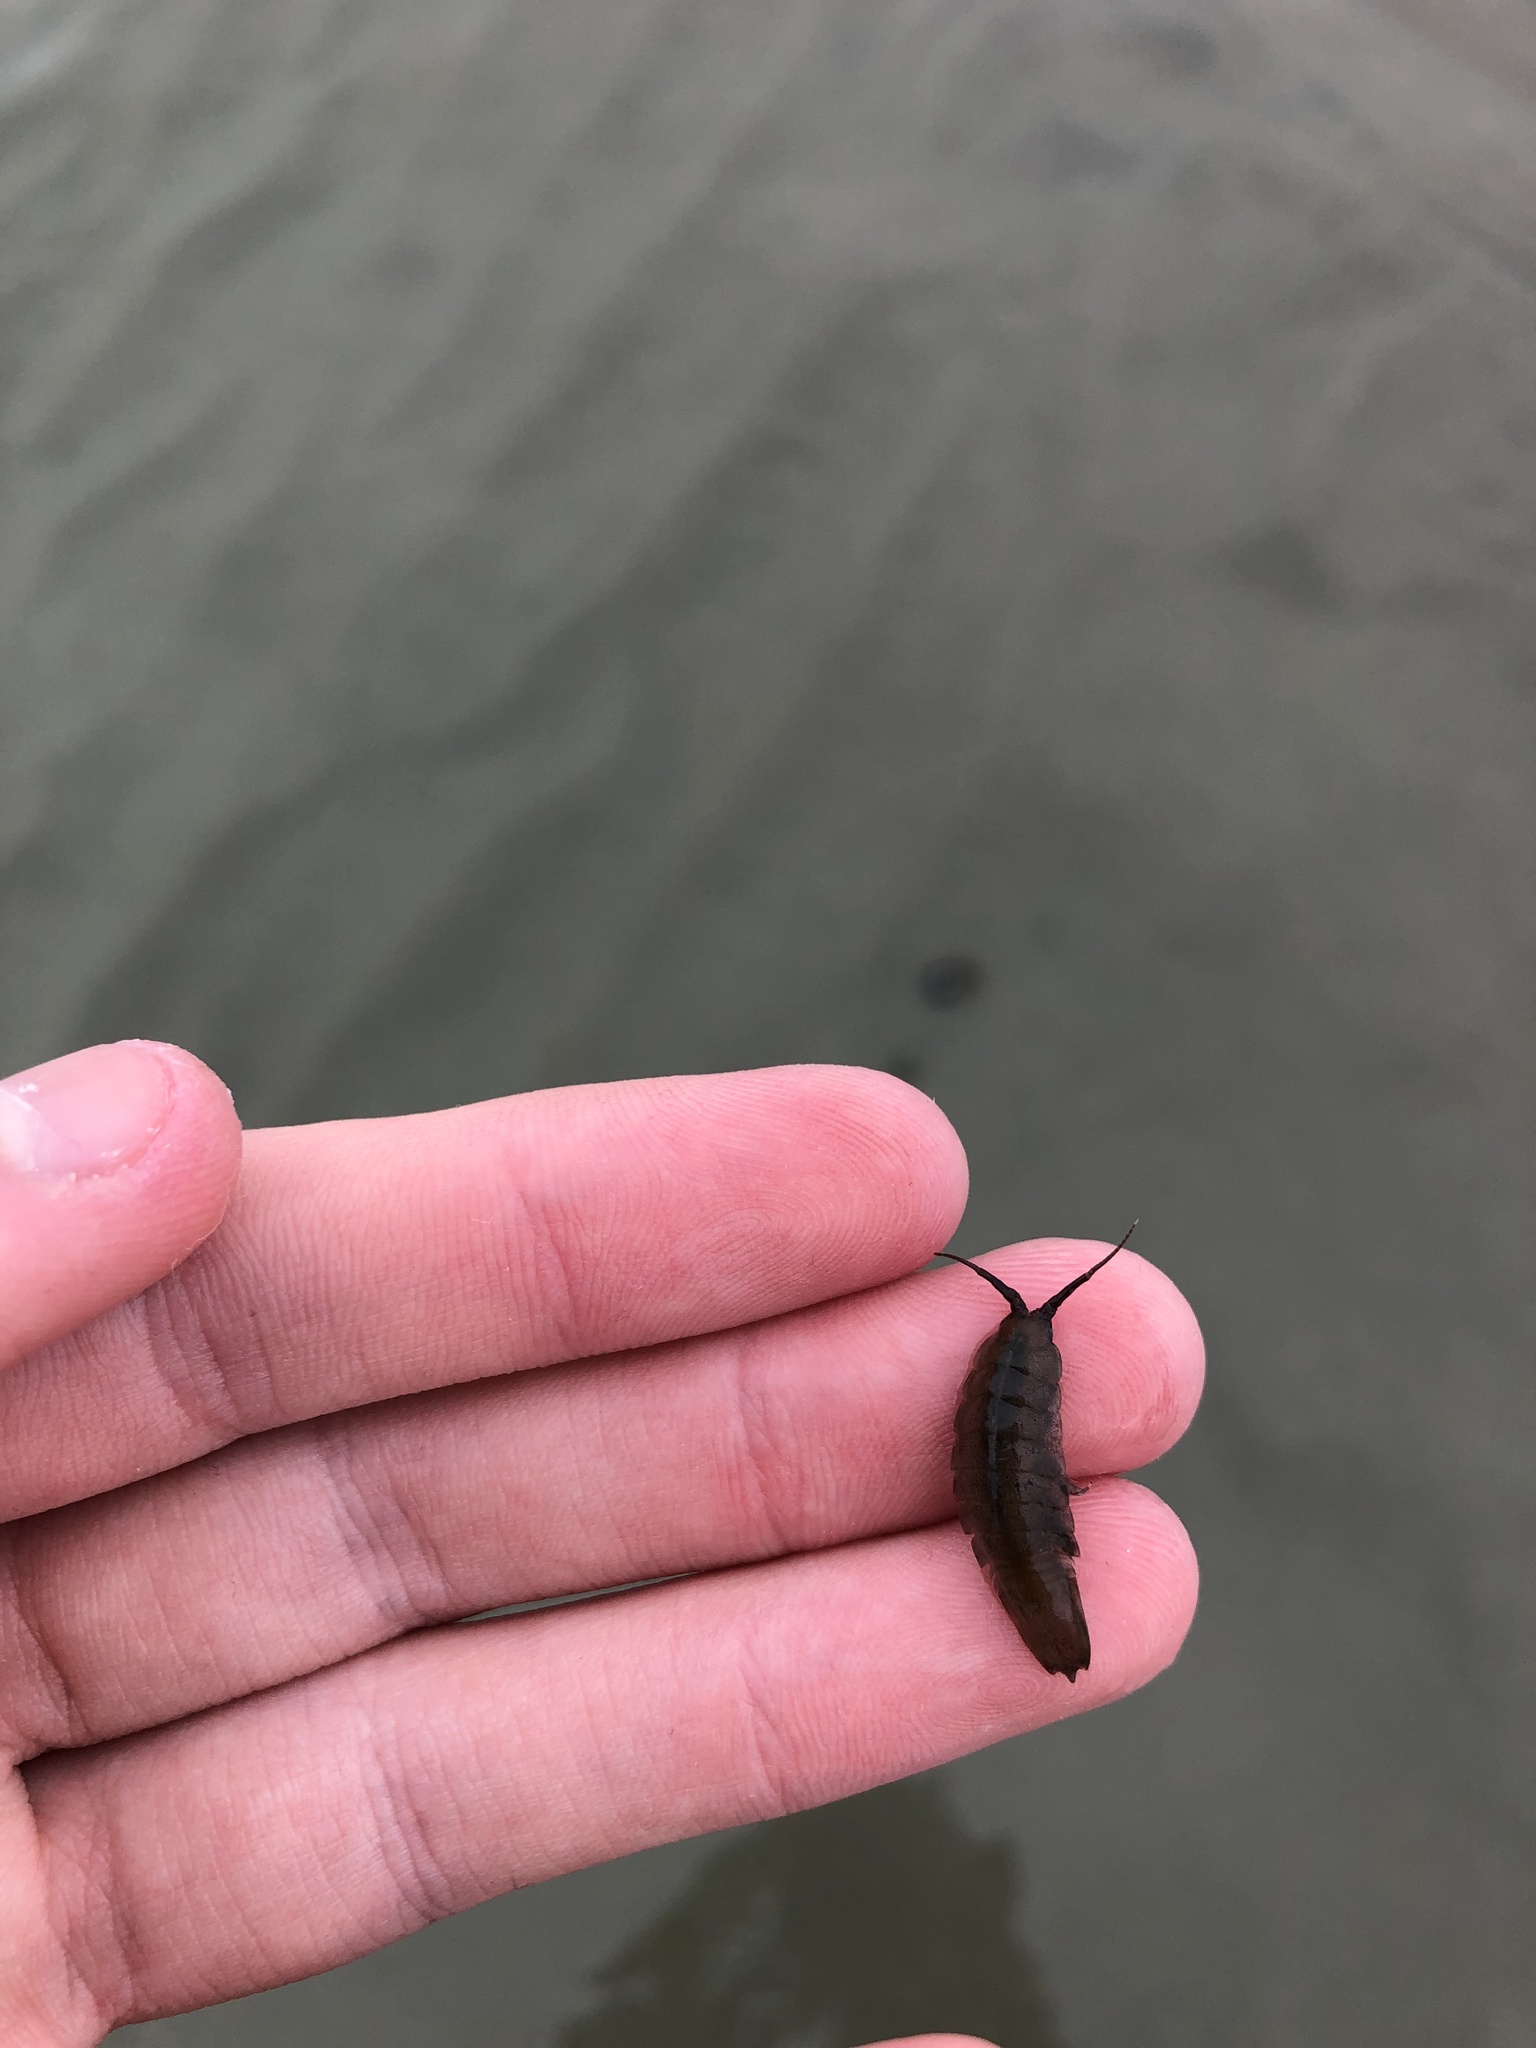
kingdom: Animalia
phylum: Arthropoda
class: Malacostraca
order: Isopoda
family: Idoteidae
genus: Idotea
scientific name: Idotea balthica
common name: Baltic isopod
